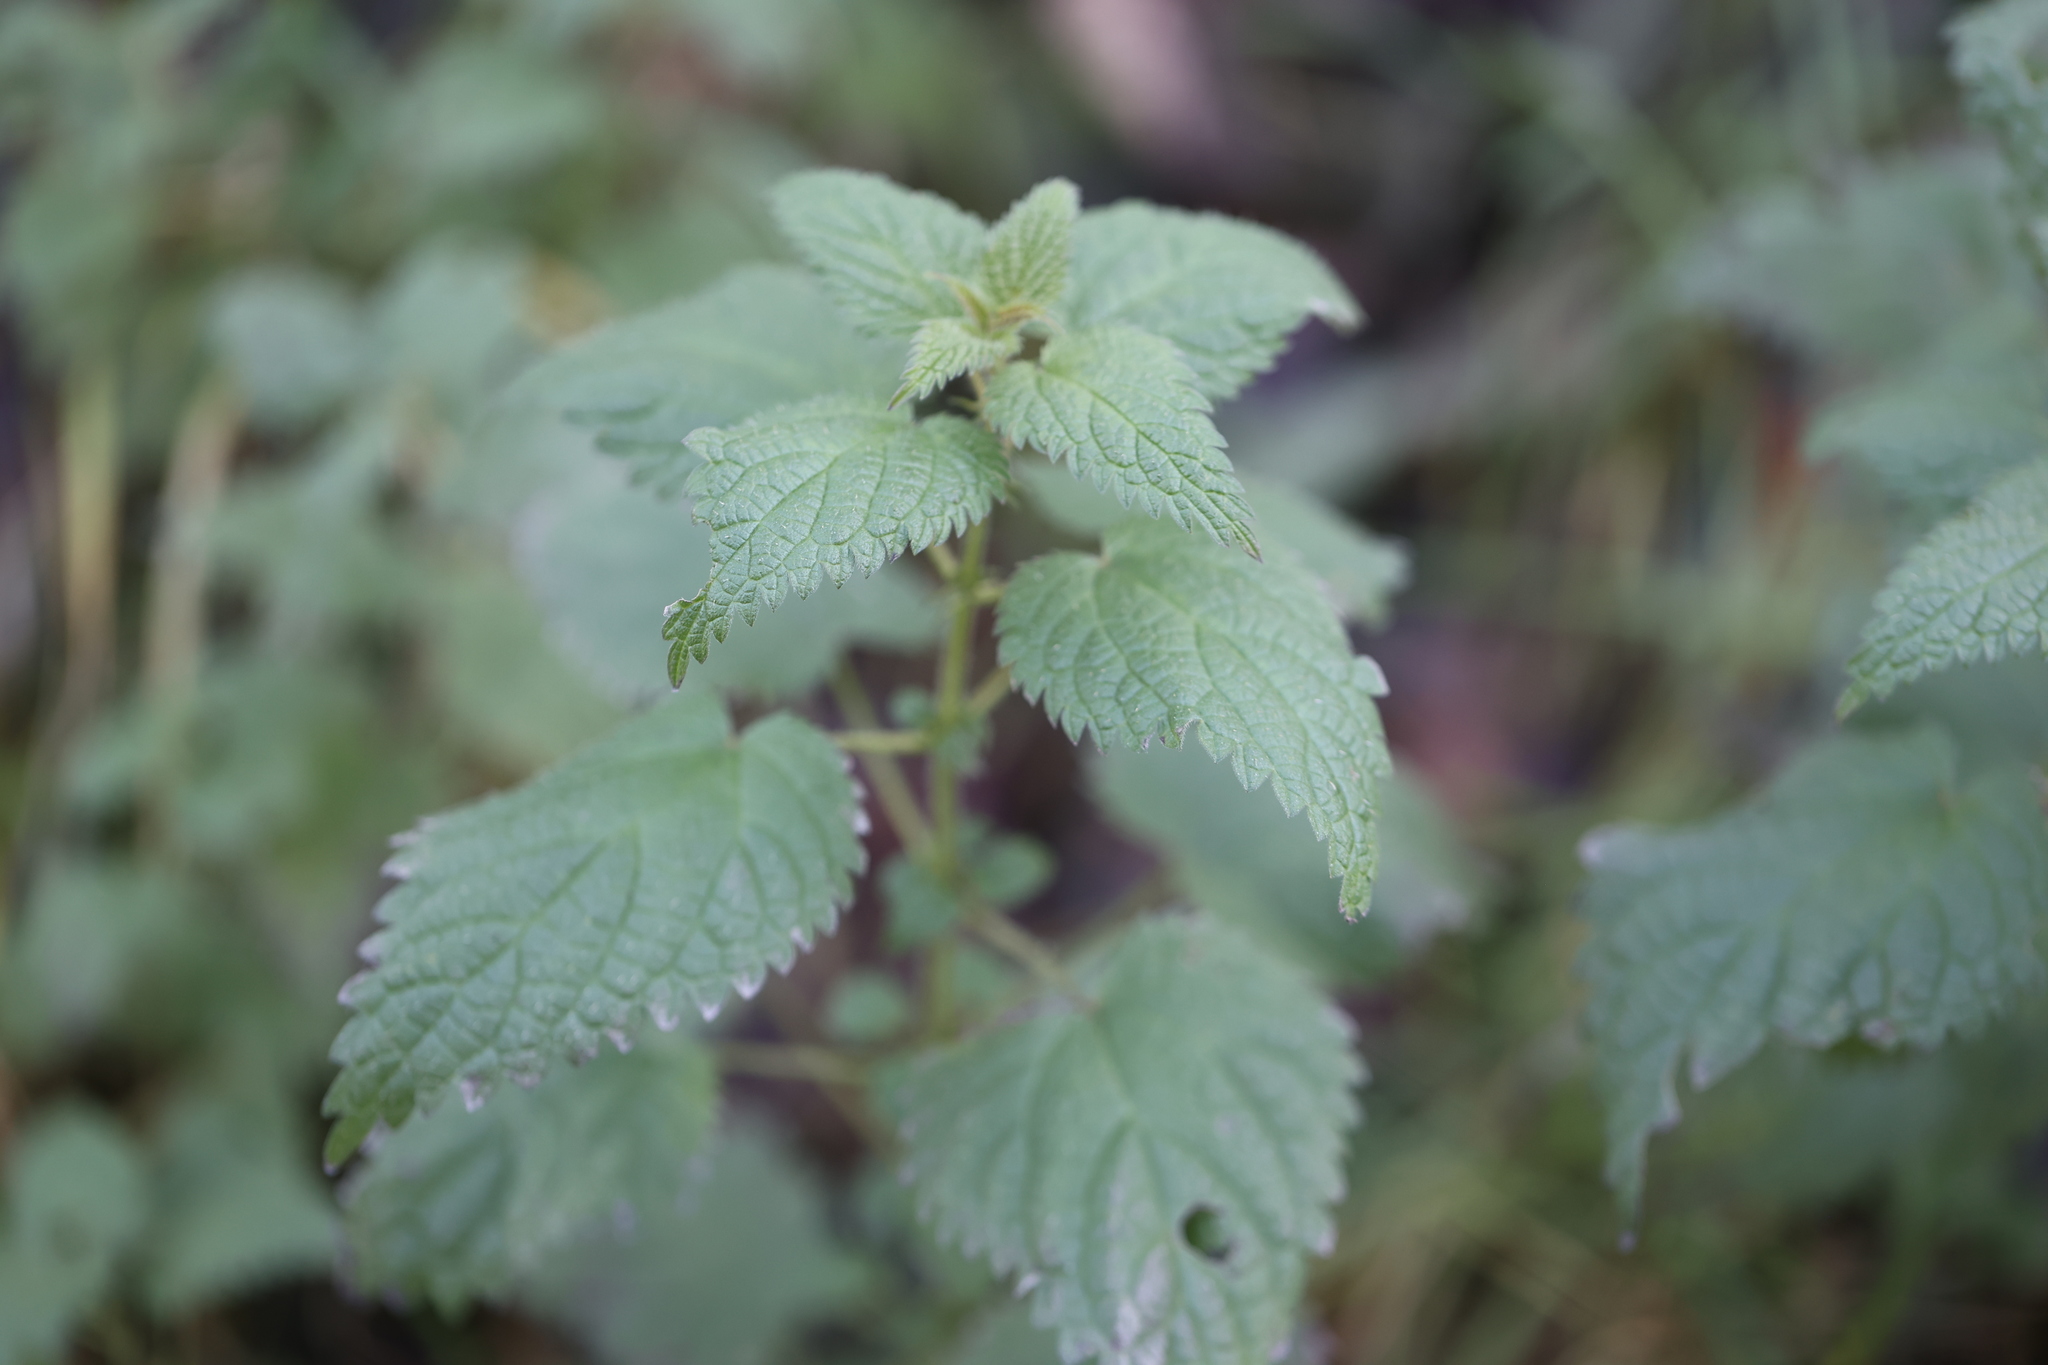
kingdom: Plantae
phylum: Tracheophyta
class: Magnoliopsida
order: Rosales
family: Urticaceae
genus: Urtica
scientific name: Urtica dioica
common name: Common nettle
